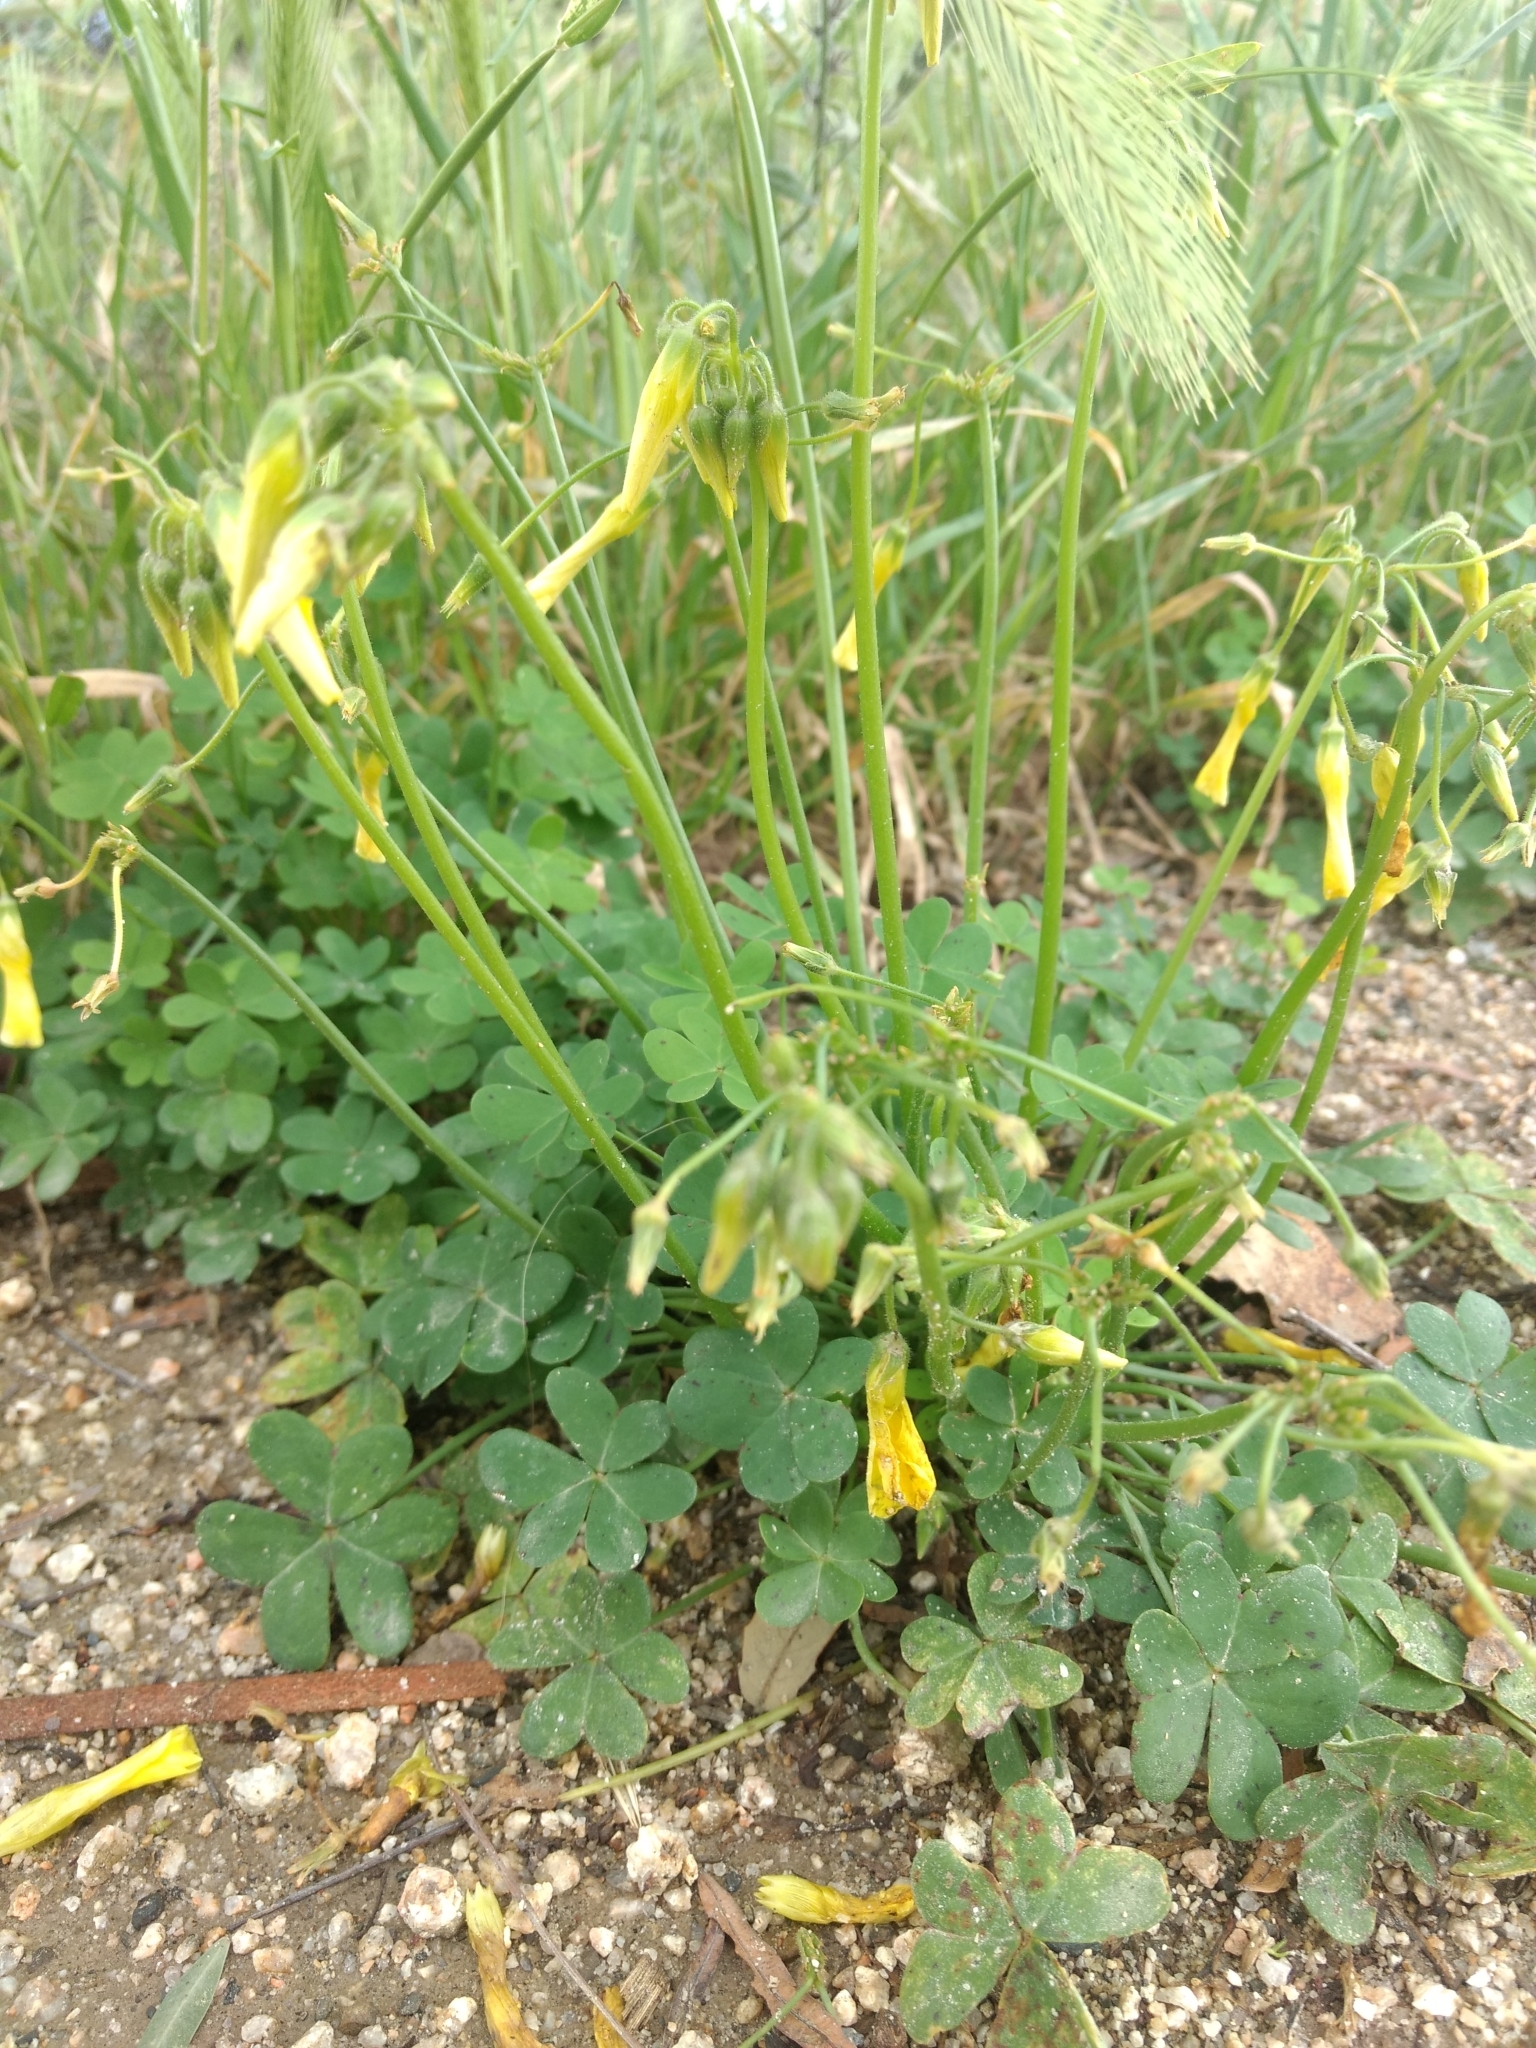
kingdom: Plantae
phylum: Tracheophyta
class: Magnoliopsida
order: Oxalidales
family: Oxalidaceae
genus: Oxalis
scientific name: Oxalis pes-caprae
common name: Bermuda-buttercup
